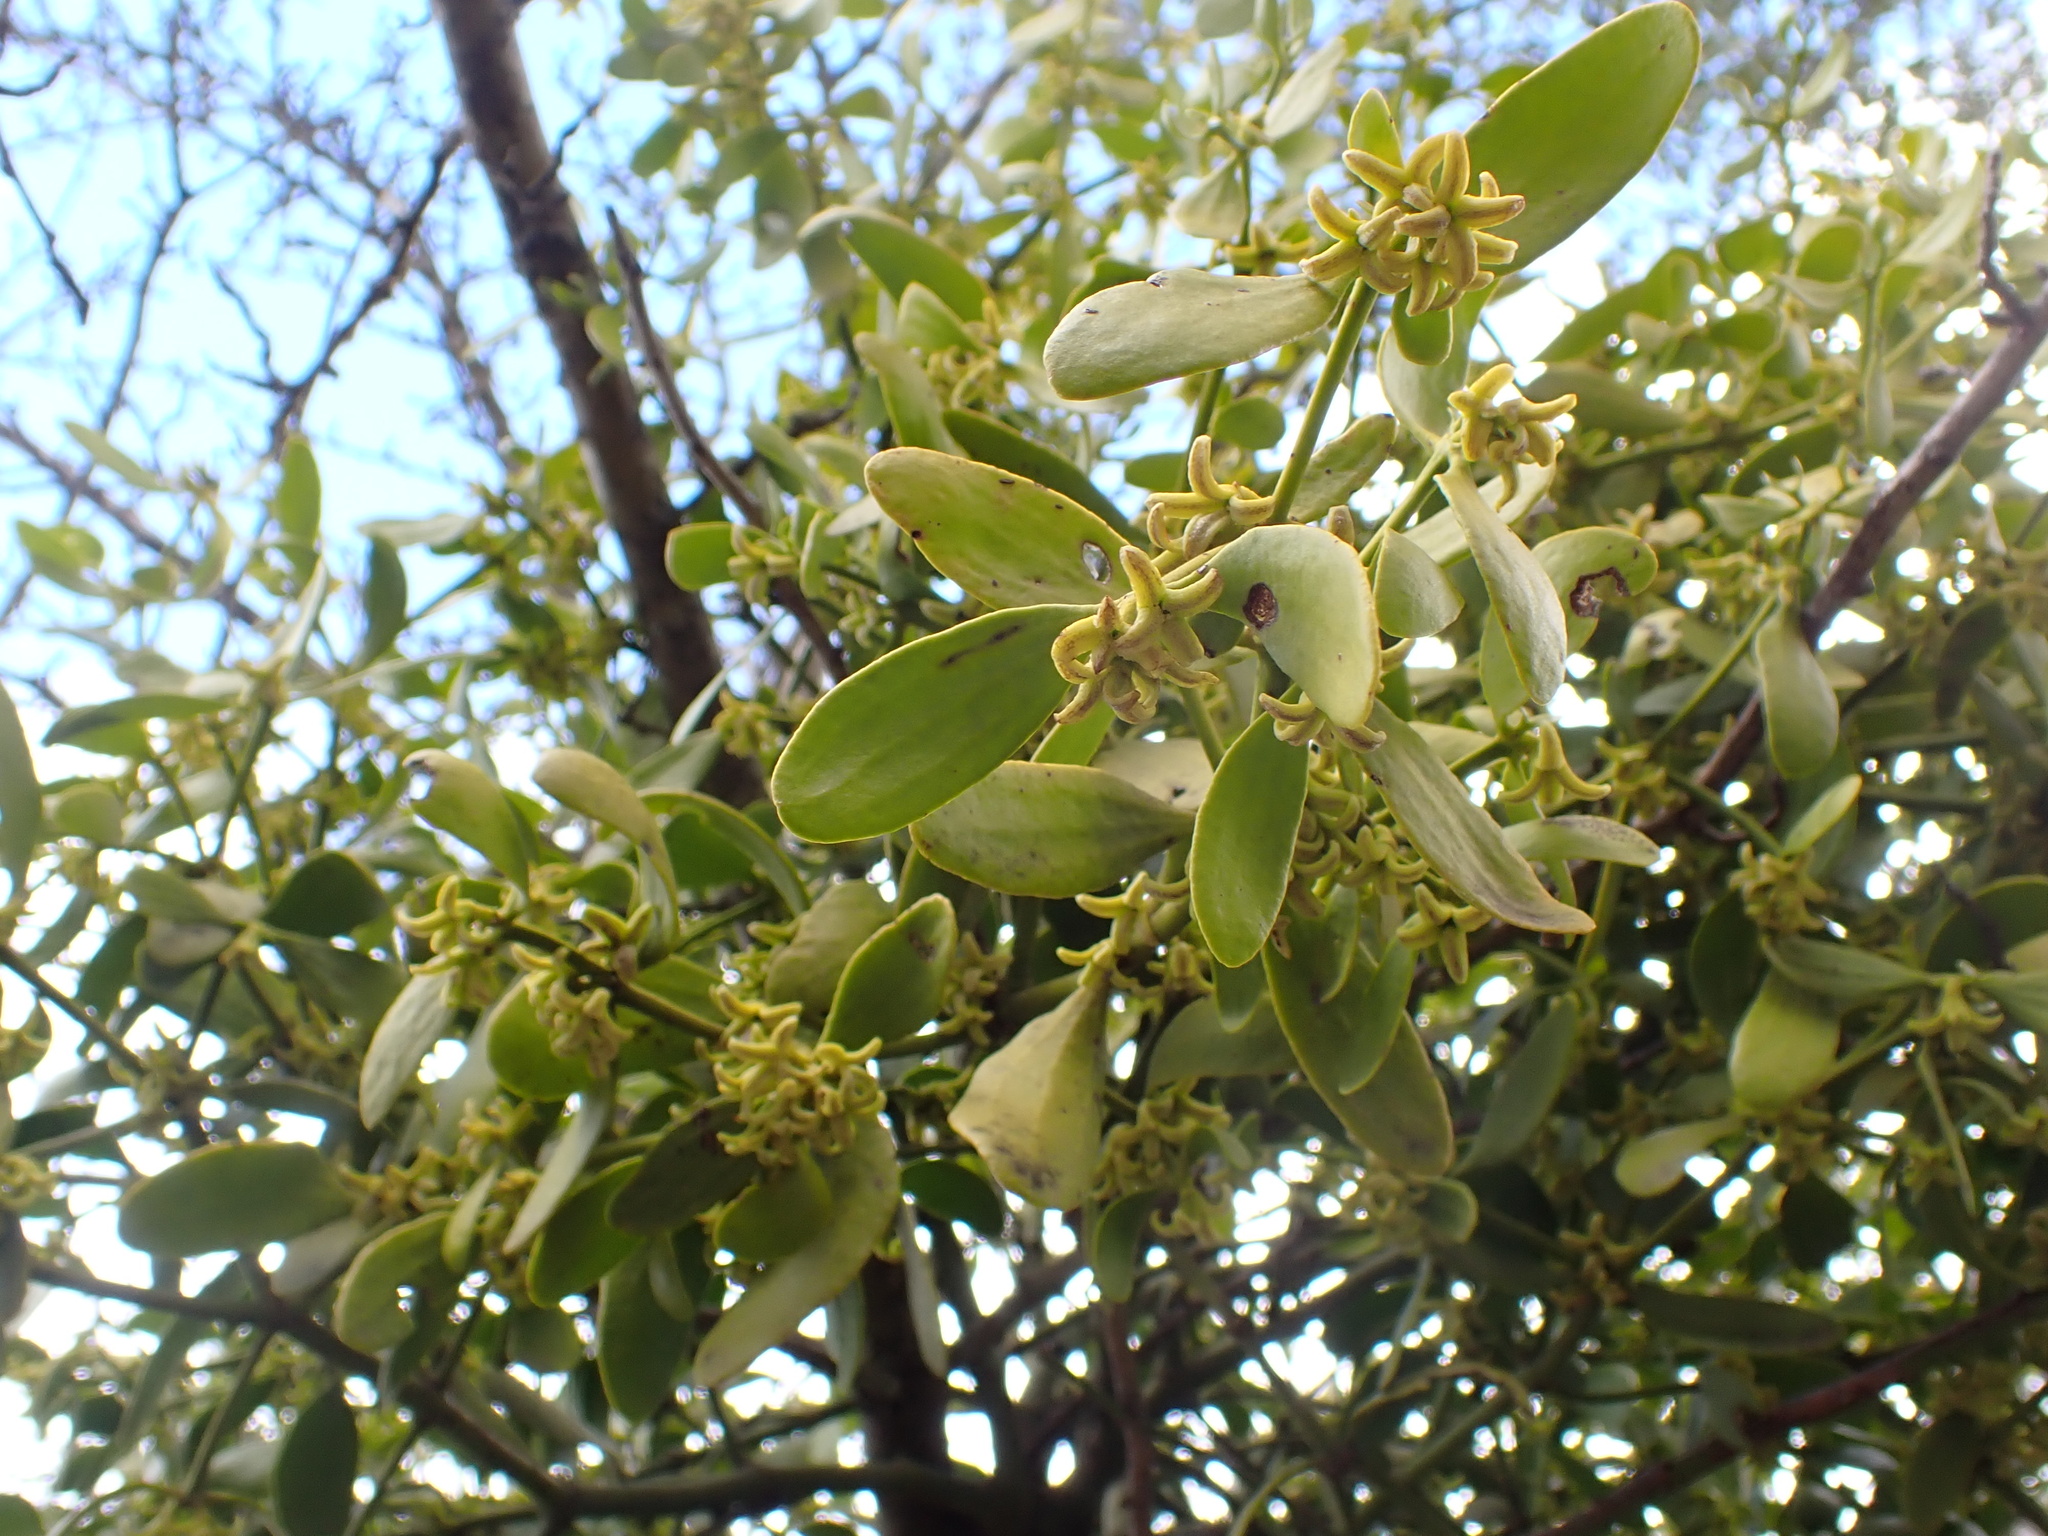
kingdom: Plantae
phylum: Tracheophyta
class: Magnoliopsida
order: Santalales
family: Viscaceae
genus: Viscum
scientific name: Viscum cruciatum
